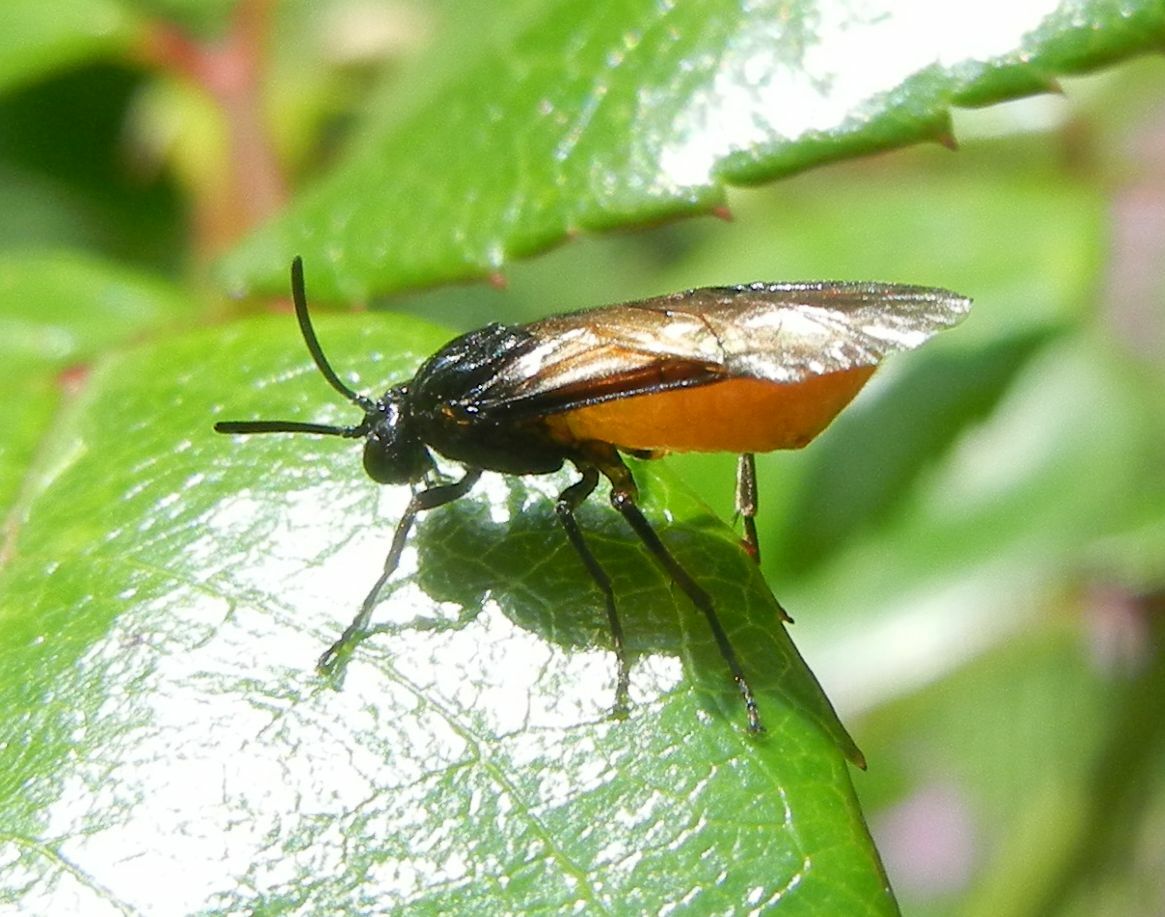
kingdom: Animalia
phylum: Arthropoda
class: Insecta
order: Hymenoptera
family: Argidae
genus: Arge
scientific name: Arge pagana
